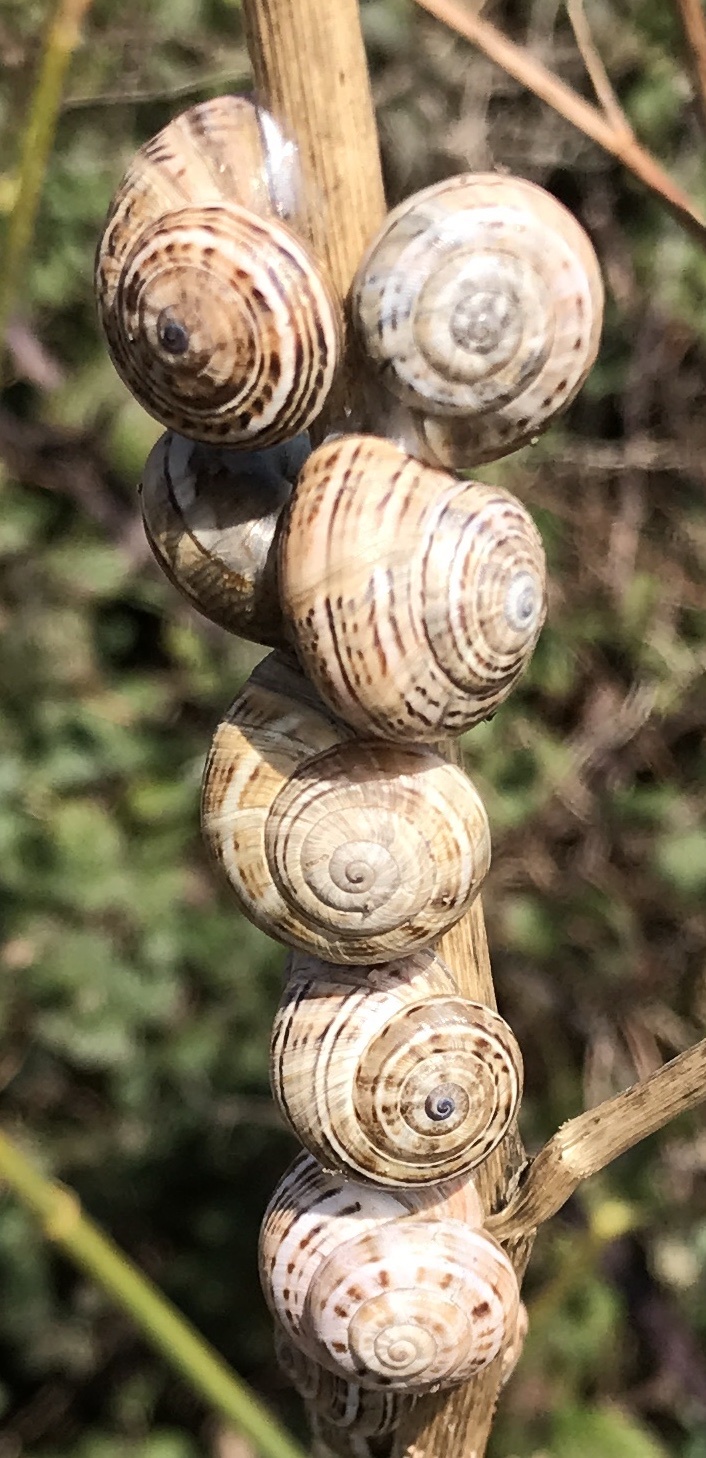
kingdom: Animalia
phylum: Mollusca
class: Gastropoda
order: Stylommatophora
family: Helicidae
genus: Theba
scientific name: Theba pisana
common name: White snail
